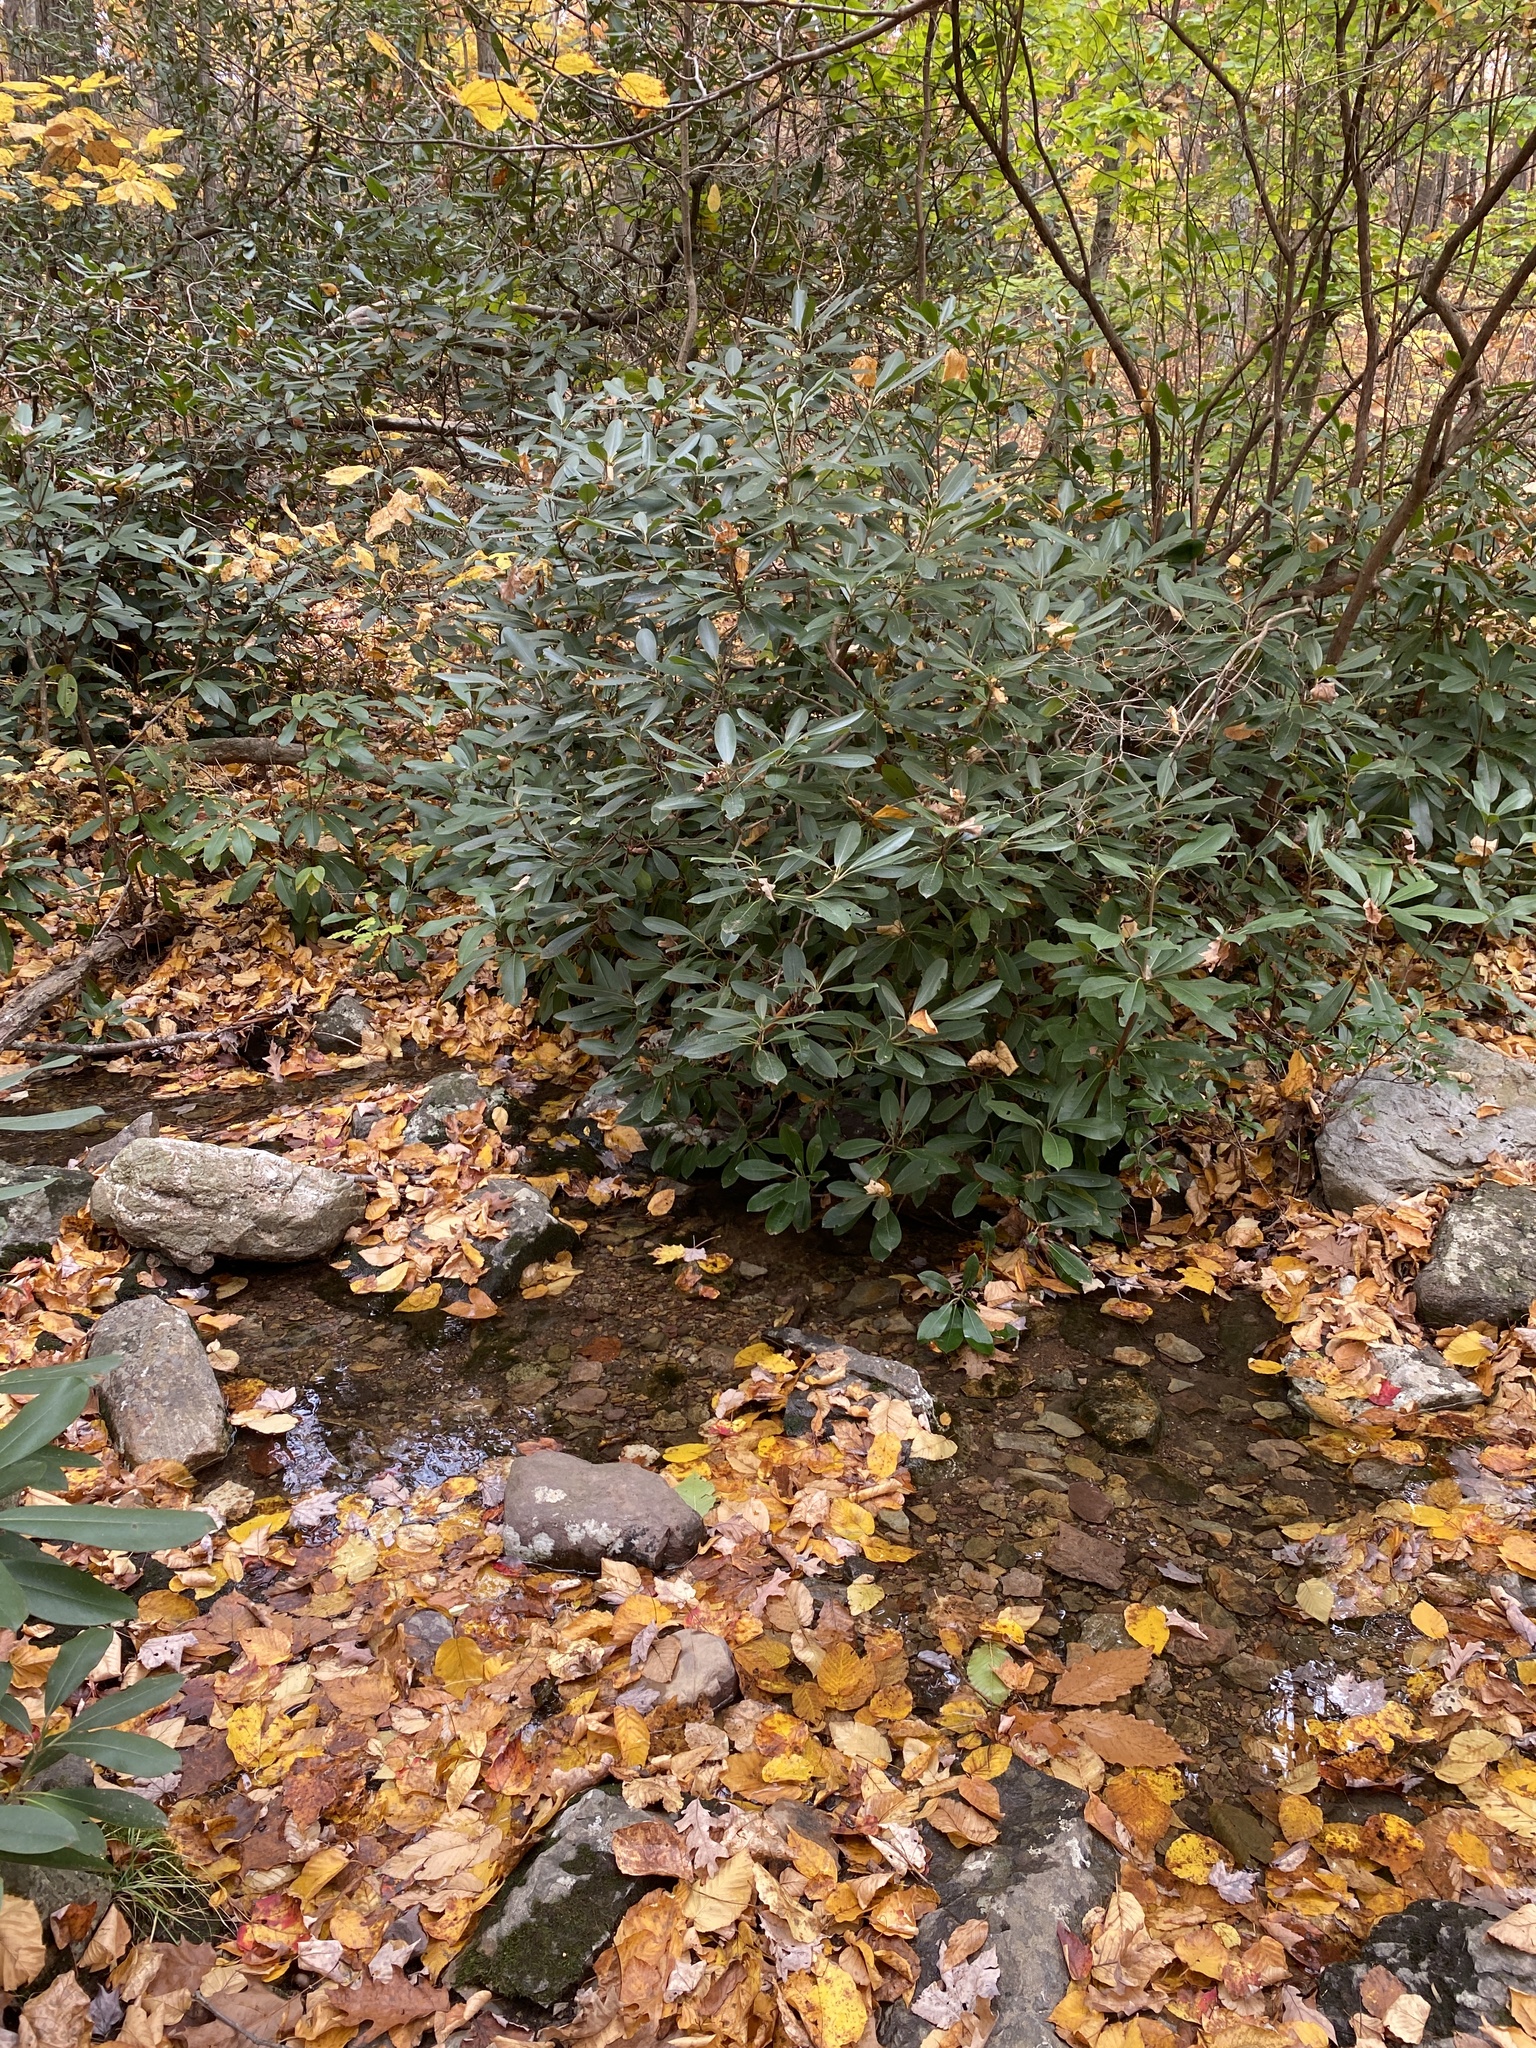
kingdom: Plantae
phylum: Tracheophyta
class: Magnoliopsida
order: Ericales
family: Ericaceae
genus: Rhododendron
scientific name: Rhododendron maximum
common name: Great rhododendron
